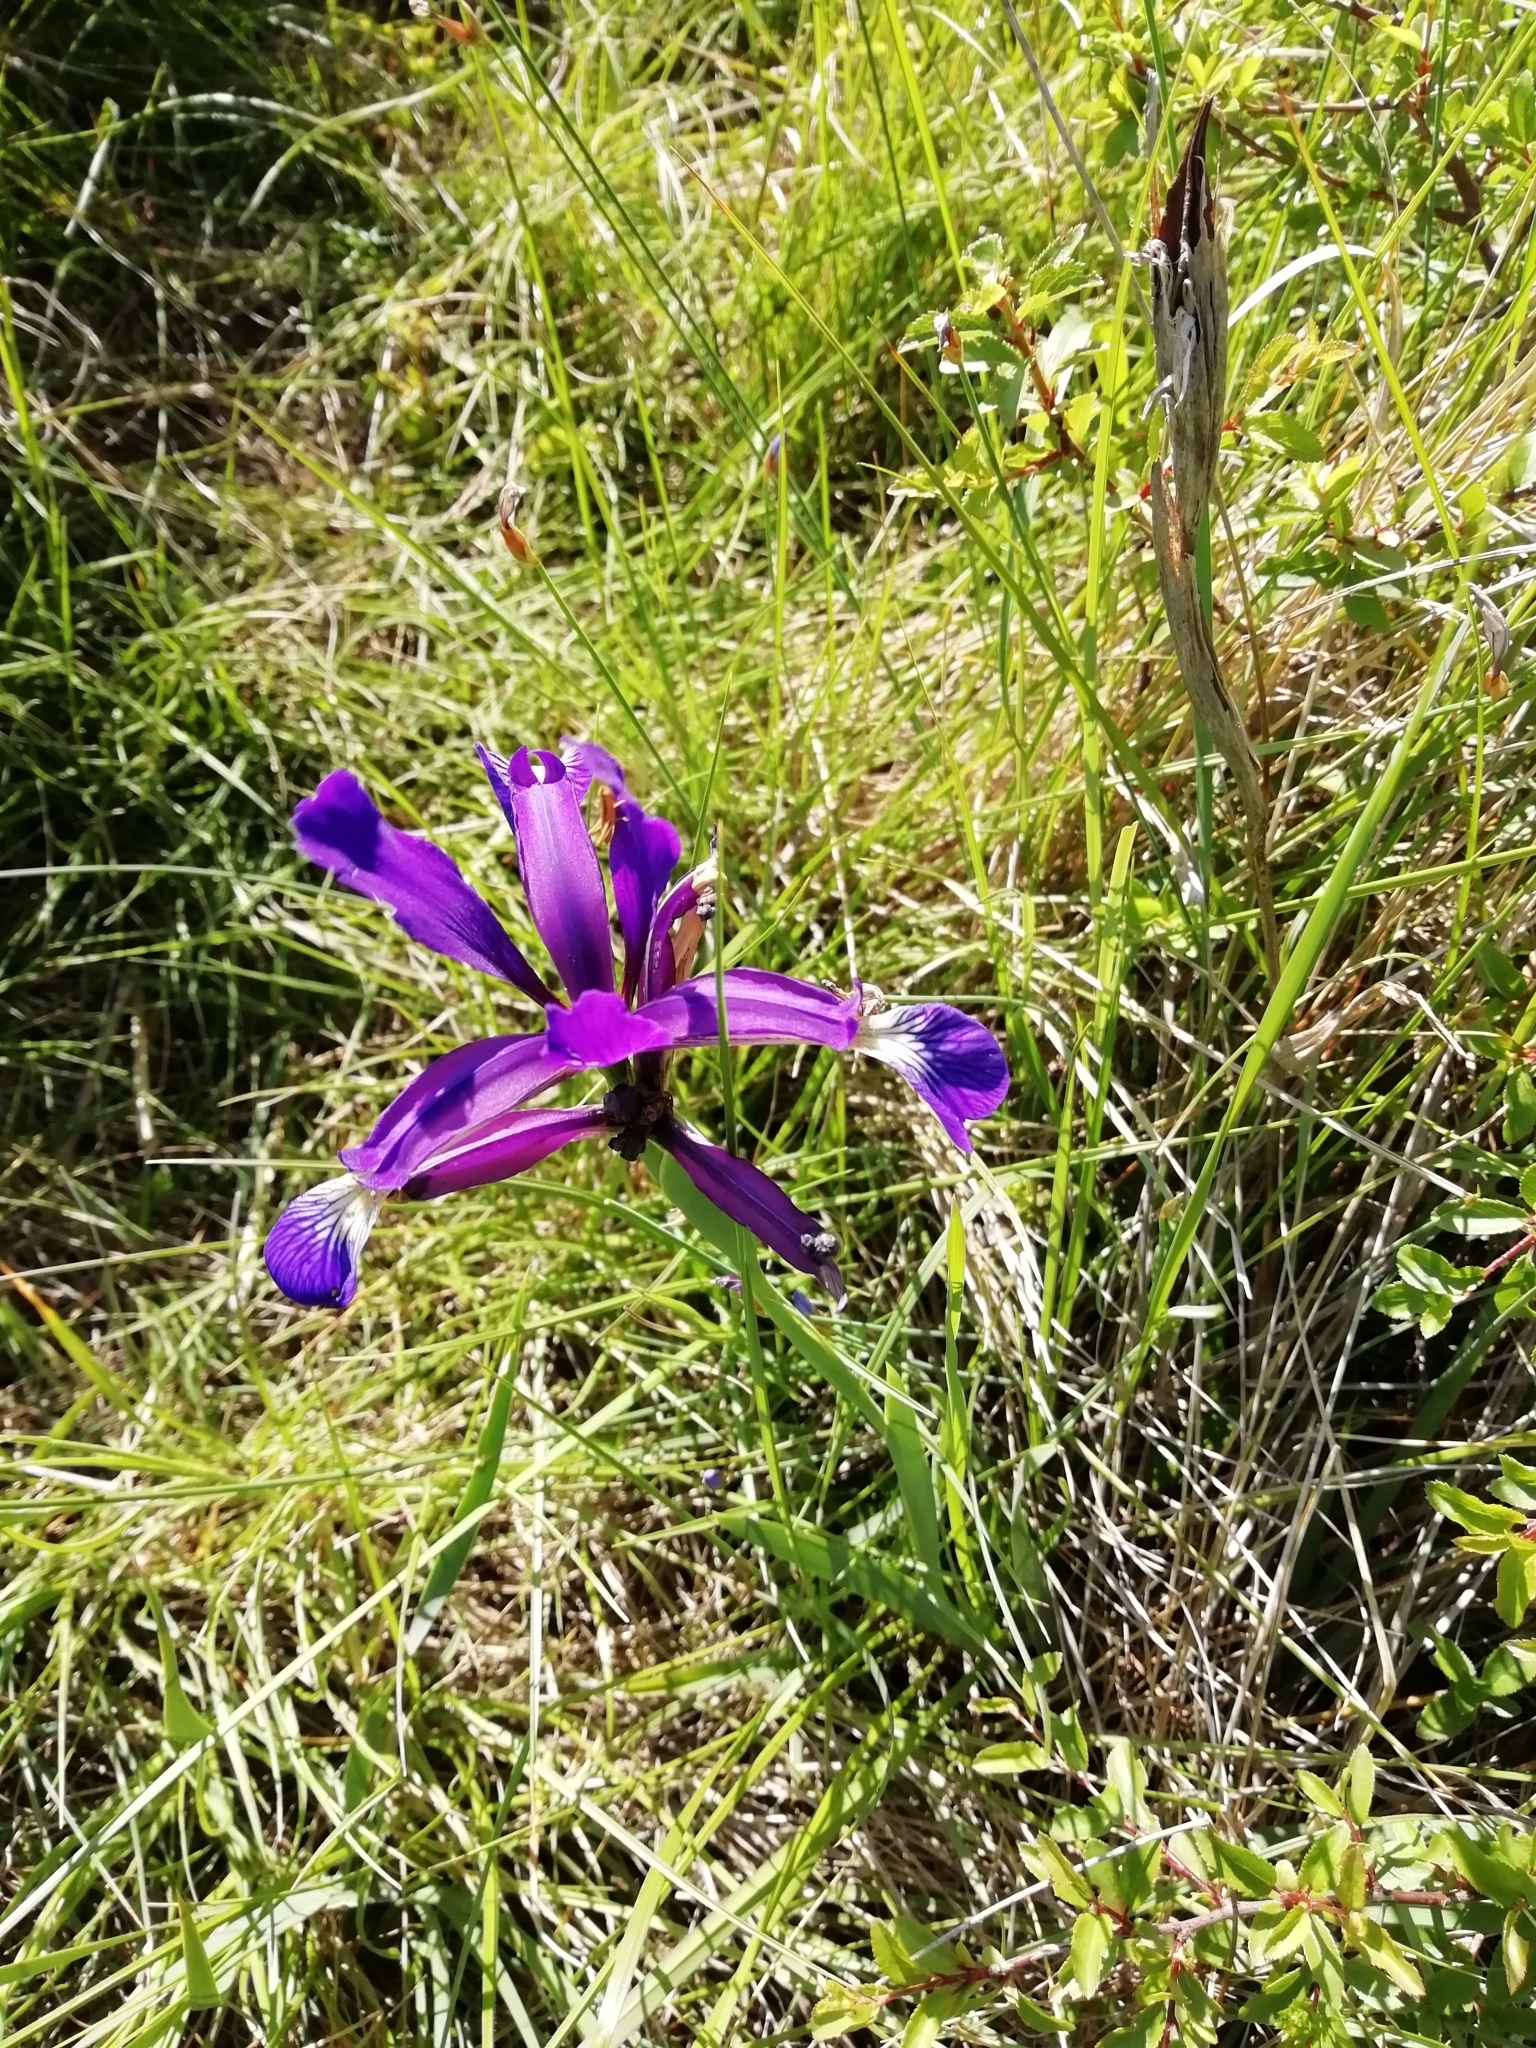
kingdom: Plantae
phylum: Tracheophyta
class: Liliopsida
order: Asparagales
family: Iridaceae
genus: Iris
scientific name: Iris reichenbachiana
